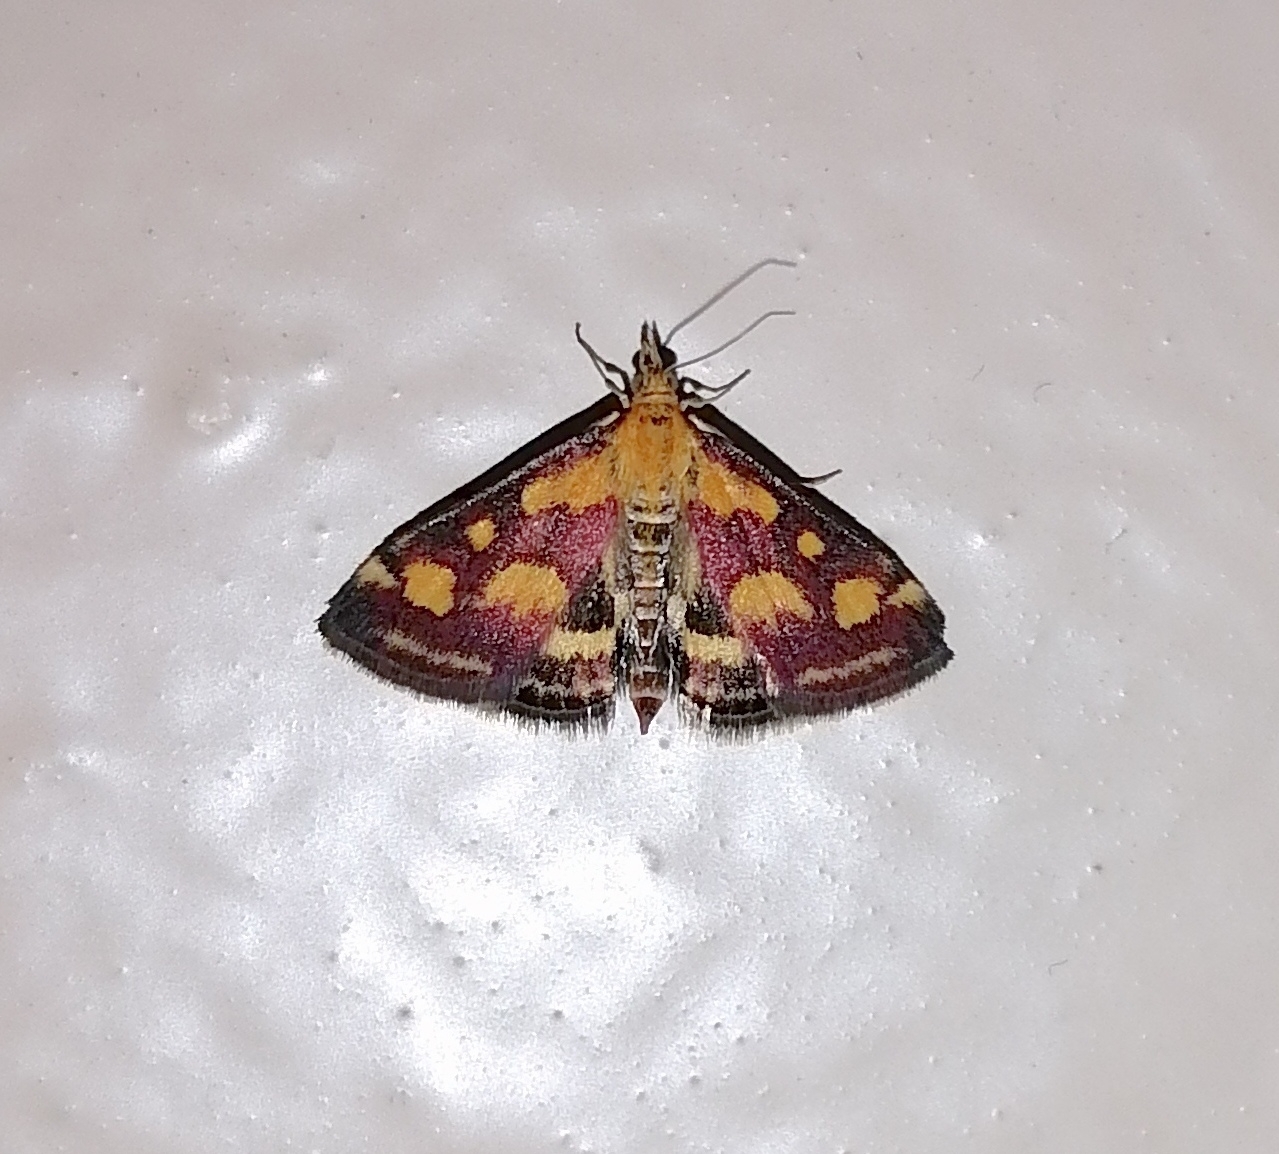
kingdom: Animalia
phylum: Arthropoda
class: Insecta
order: Lepidoptera
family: Crambidae
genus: Pyrausta
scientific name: Pyrausta purpuralis
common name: Common purple & gold
